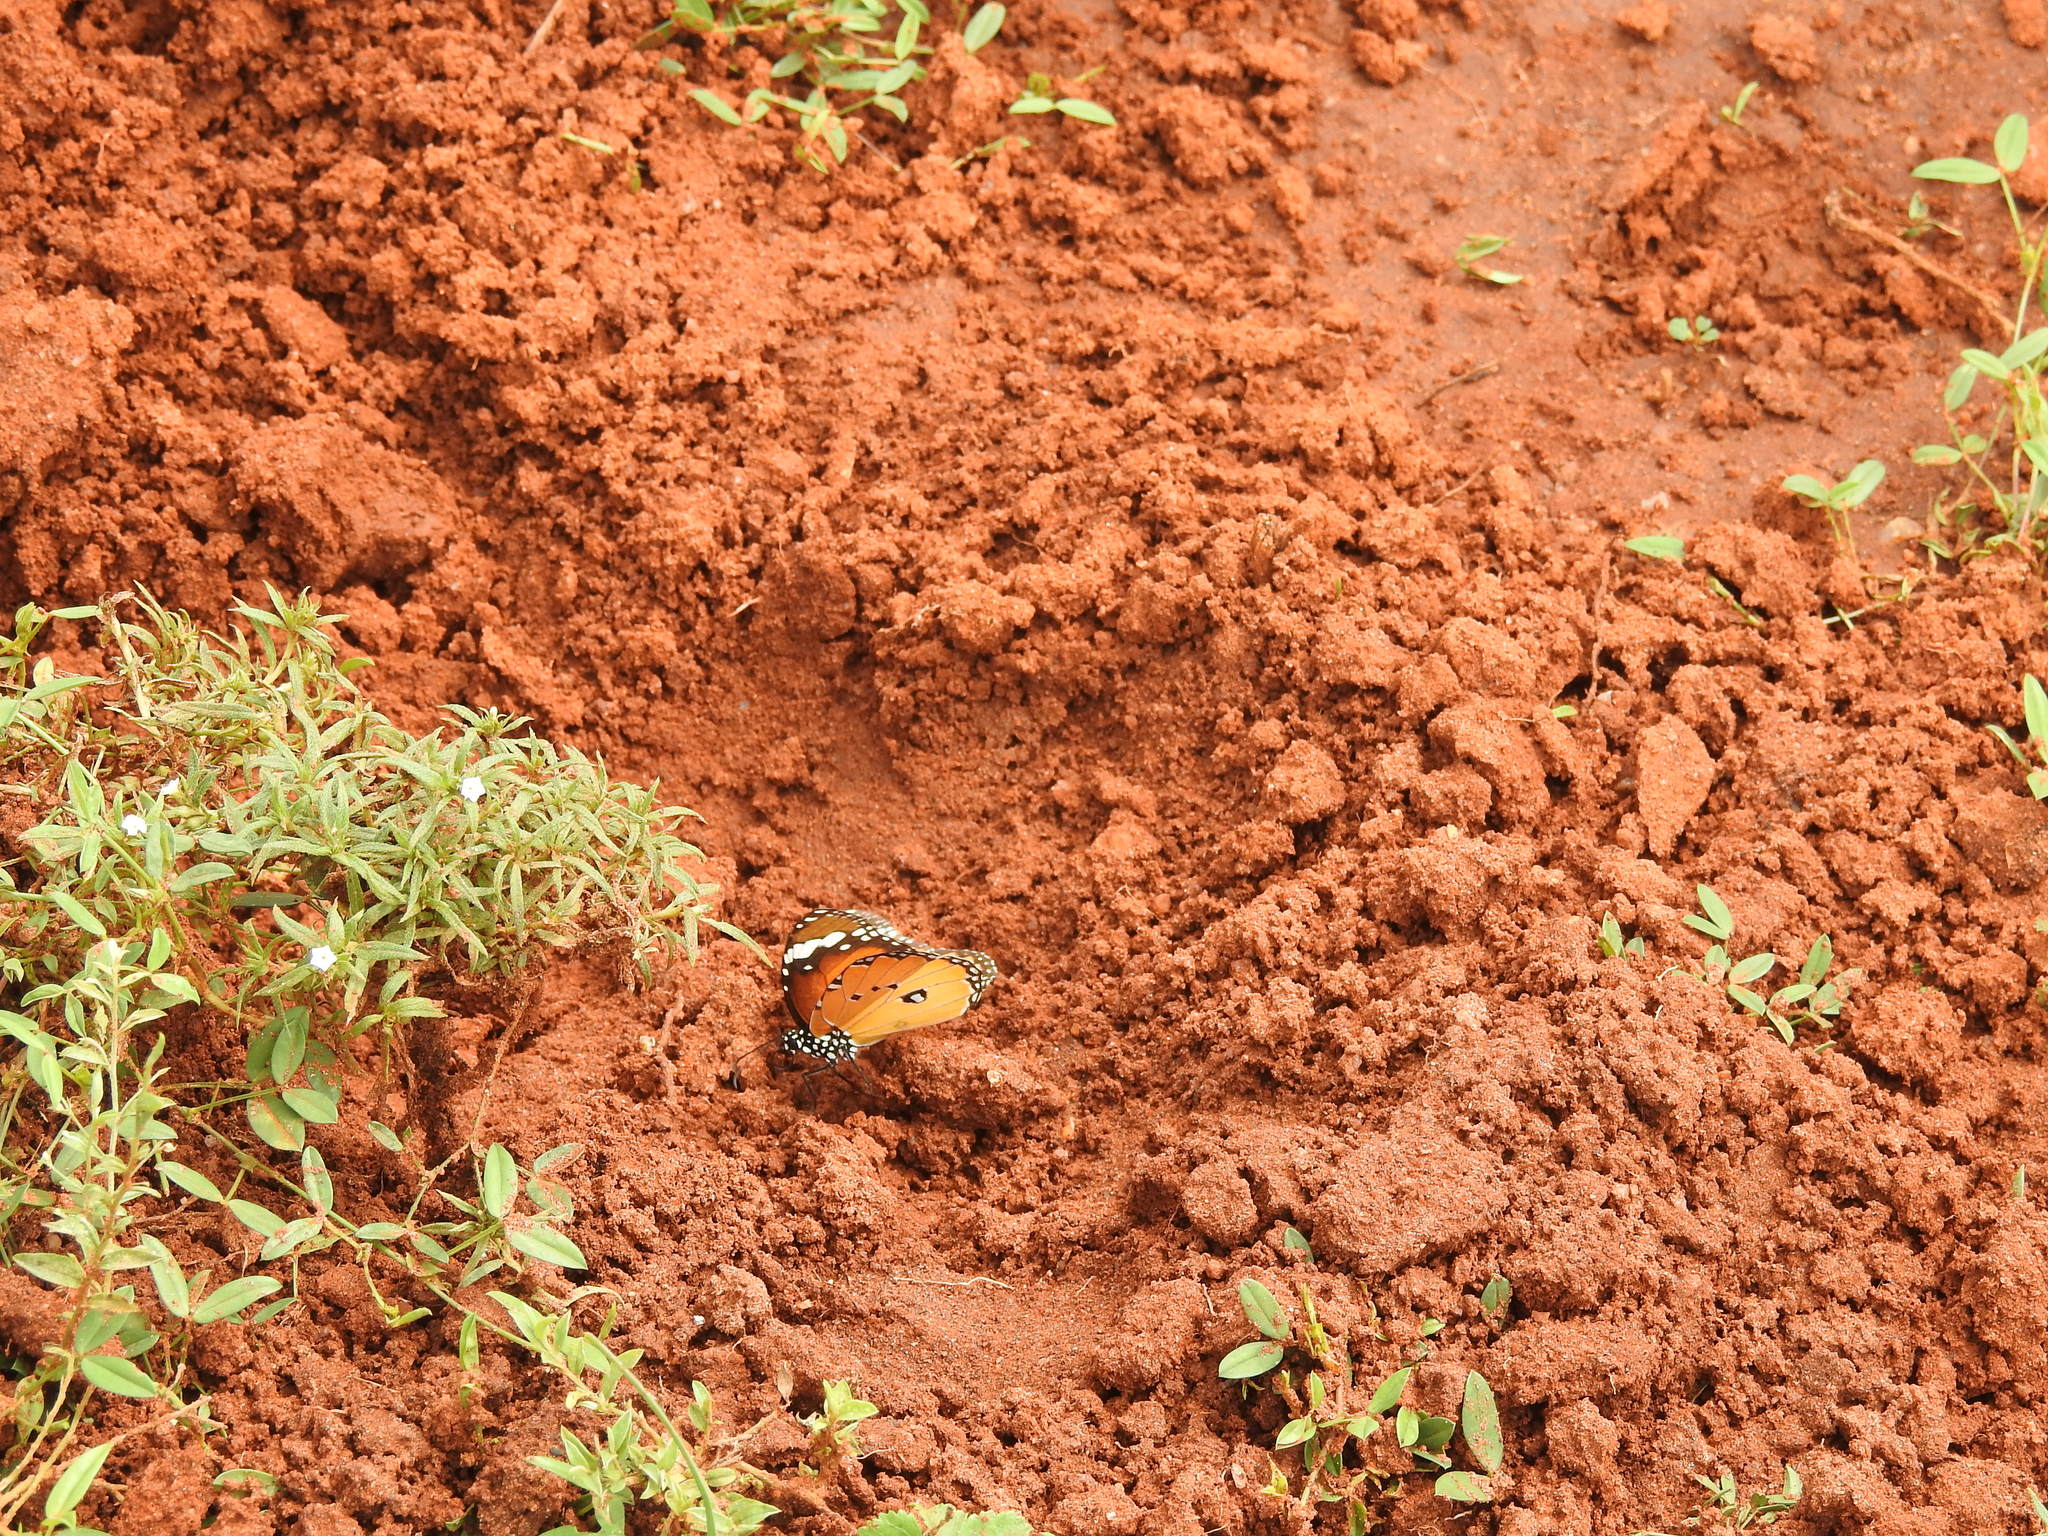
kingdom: Animalia
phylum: Arthropoda
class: Insecta
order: Lepidoptera
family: Nymphalidae
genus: Danaus
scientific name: Danaus chrysippus
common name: Plain tiger
